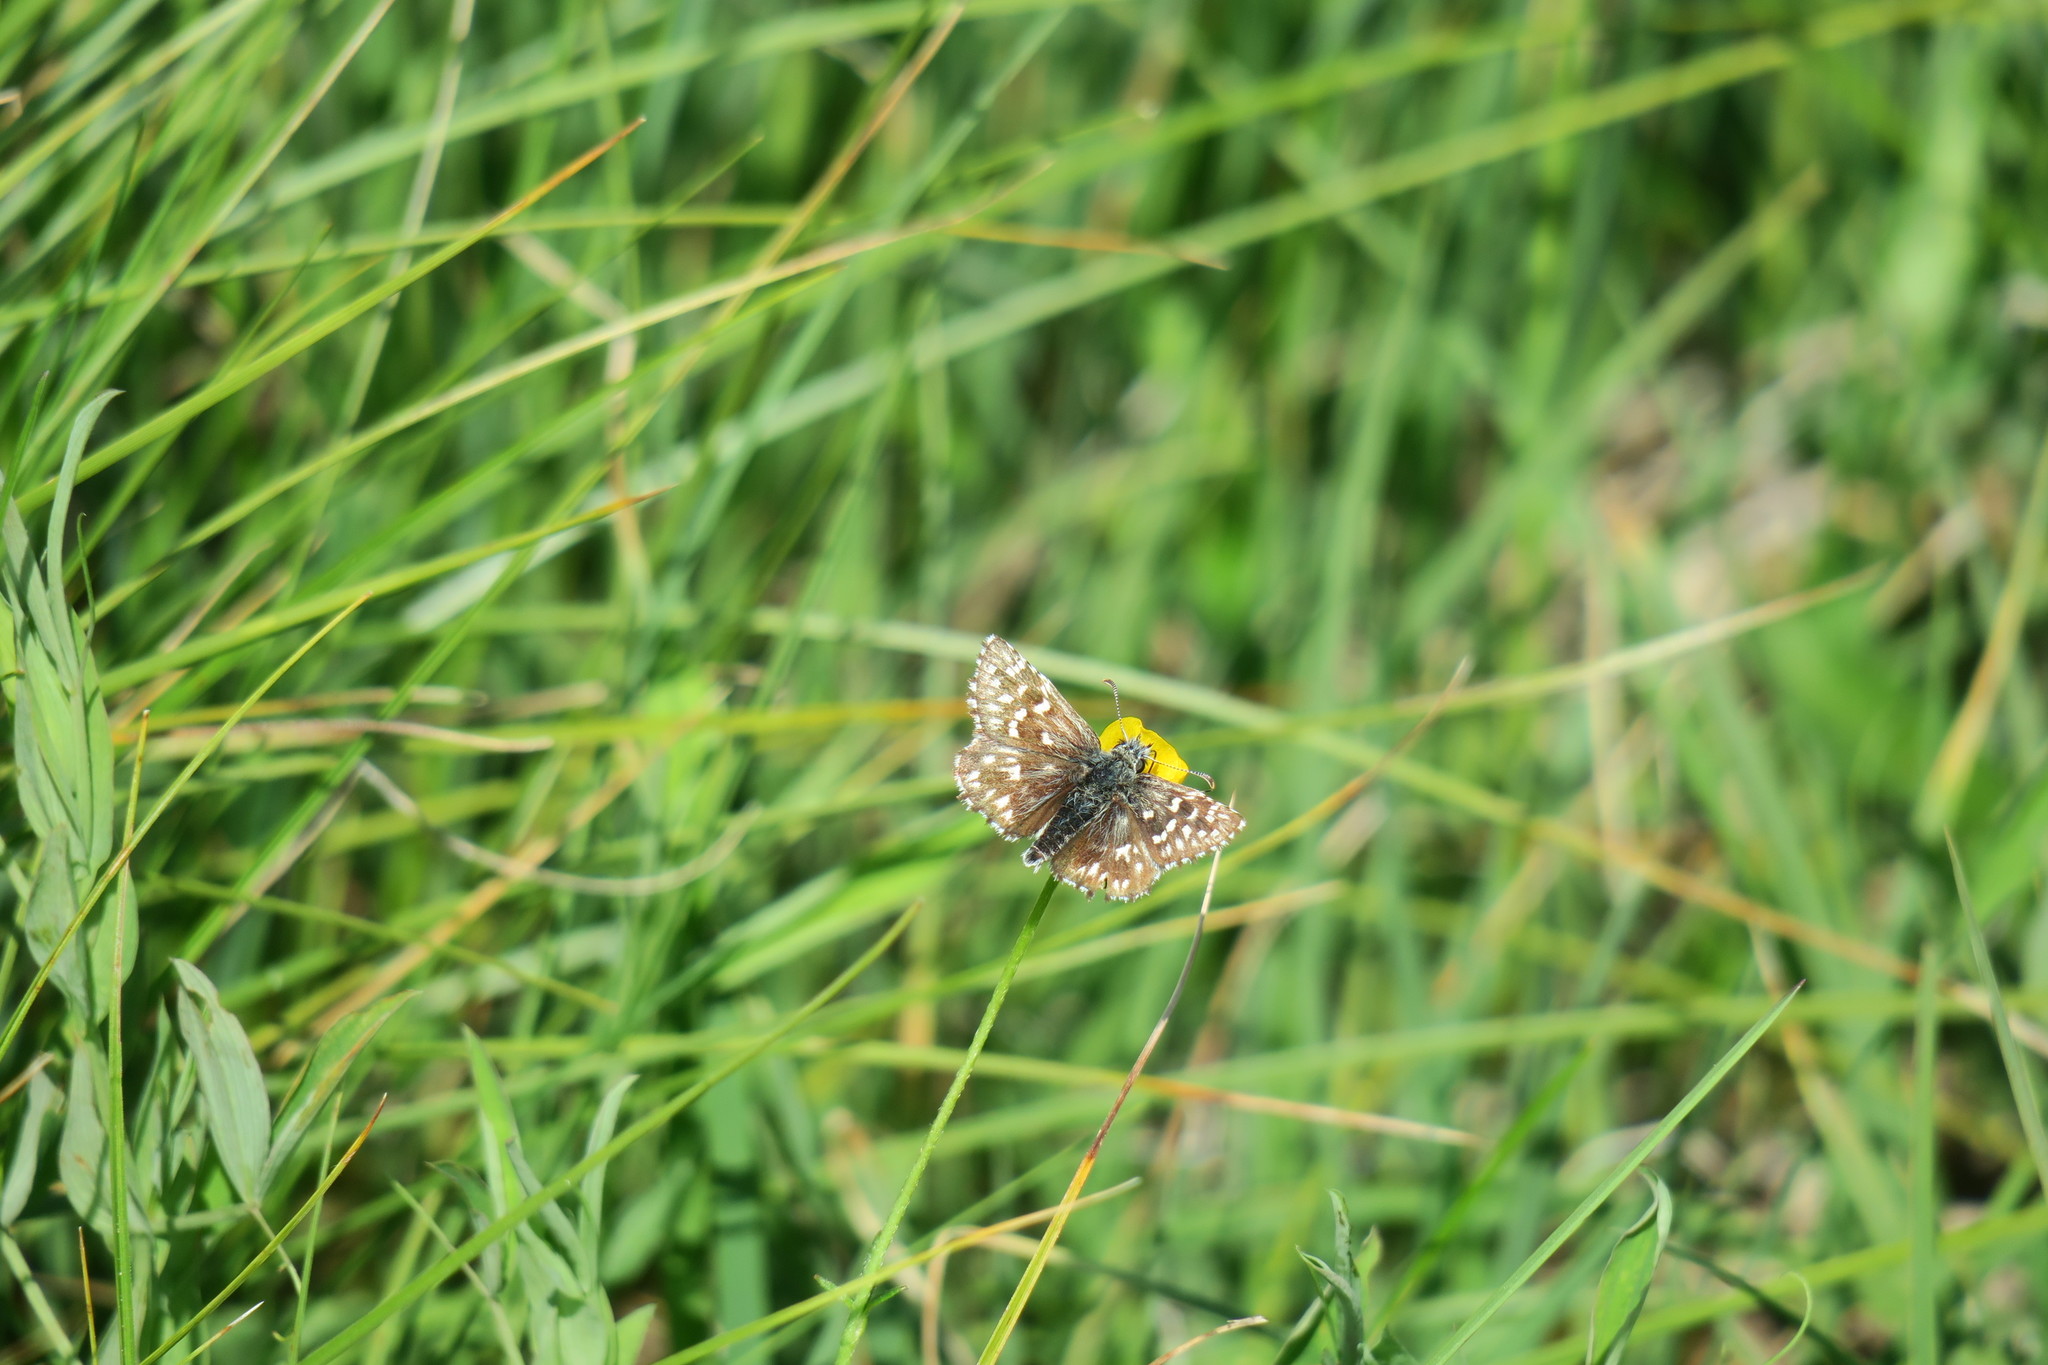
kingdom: Animalia
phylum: Arthropoda
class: Insecta
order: Lepidoptera
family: Hesperiidae
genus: Pyrgus
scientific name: Pyrgus malvae
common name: Grizzled skipper
